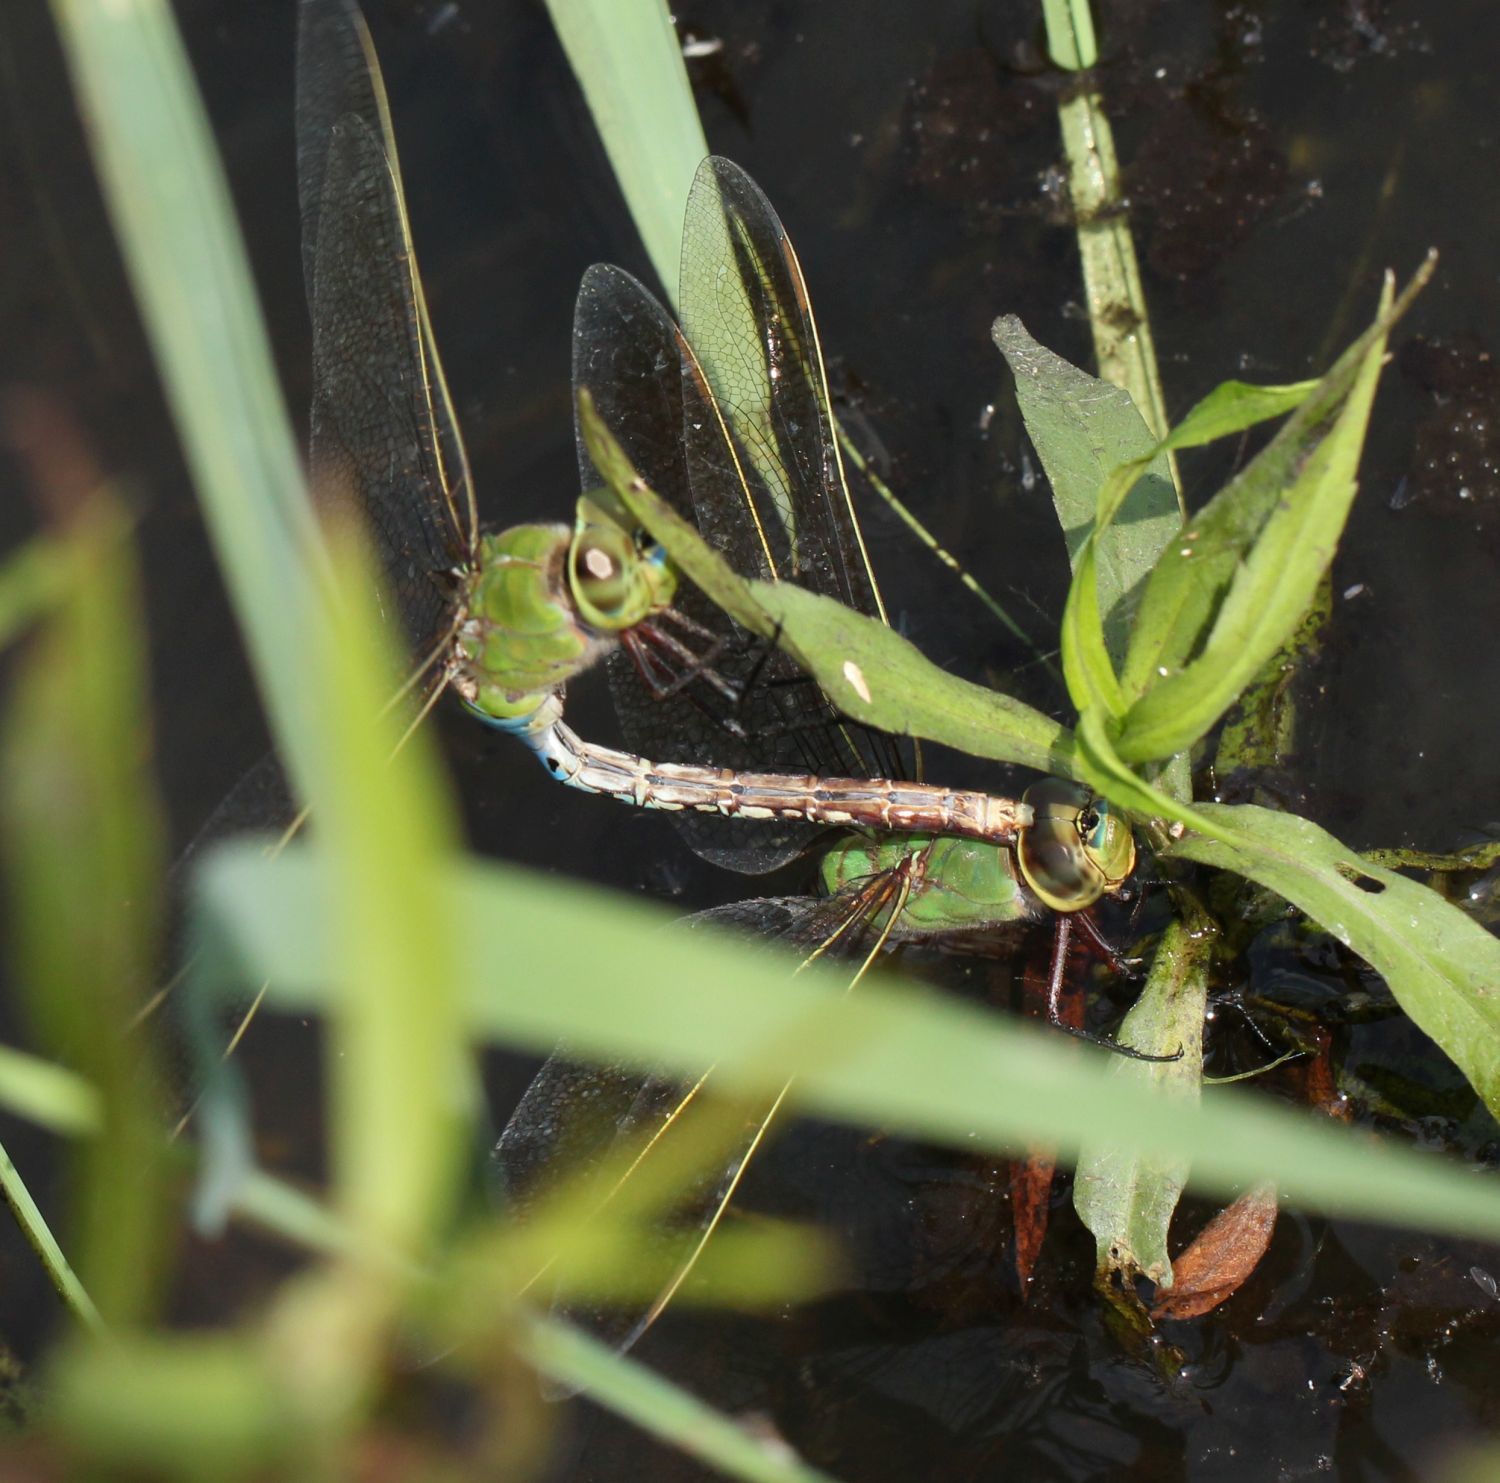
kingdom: Animalia
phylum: Arthropoda
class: Insecta
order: Odonata
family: Aeshnidae
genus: Anax
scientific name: Anax junius
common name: Common green darner
